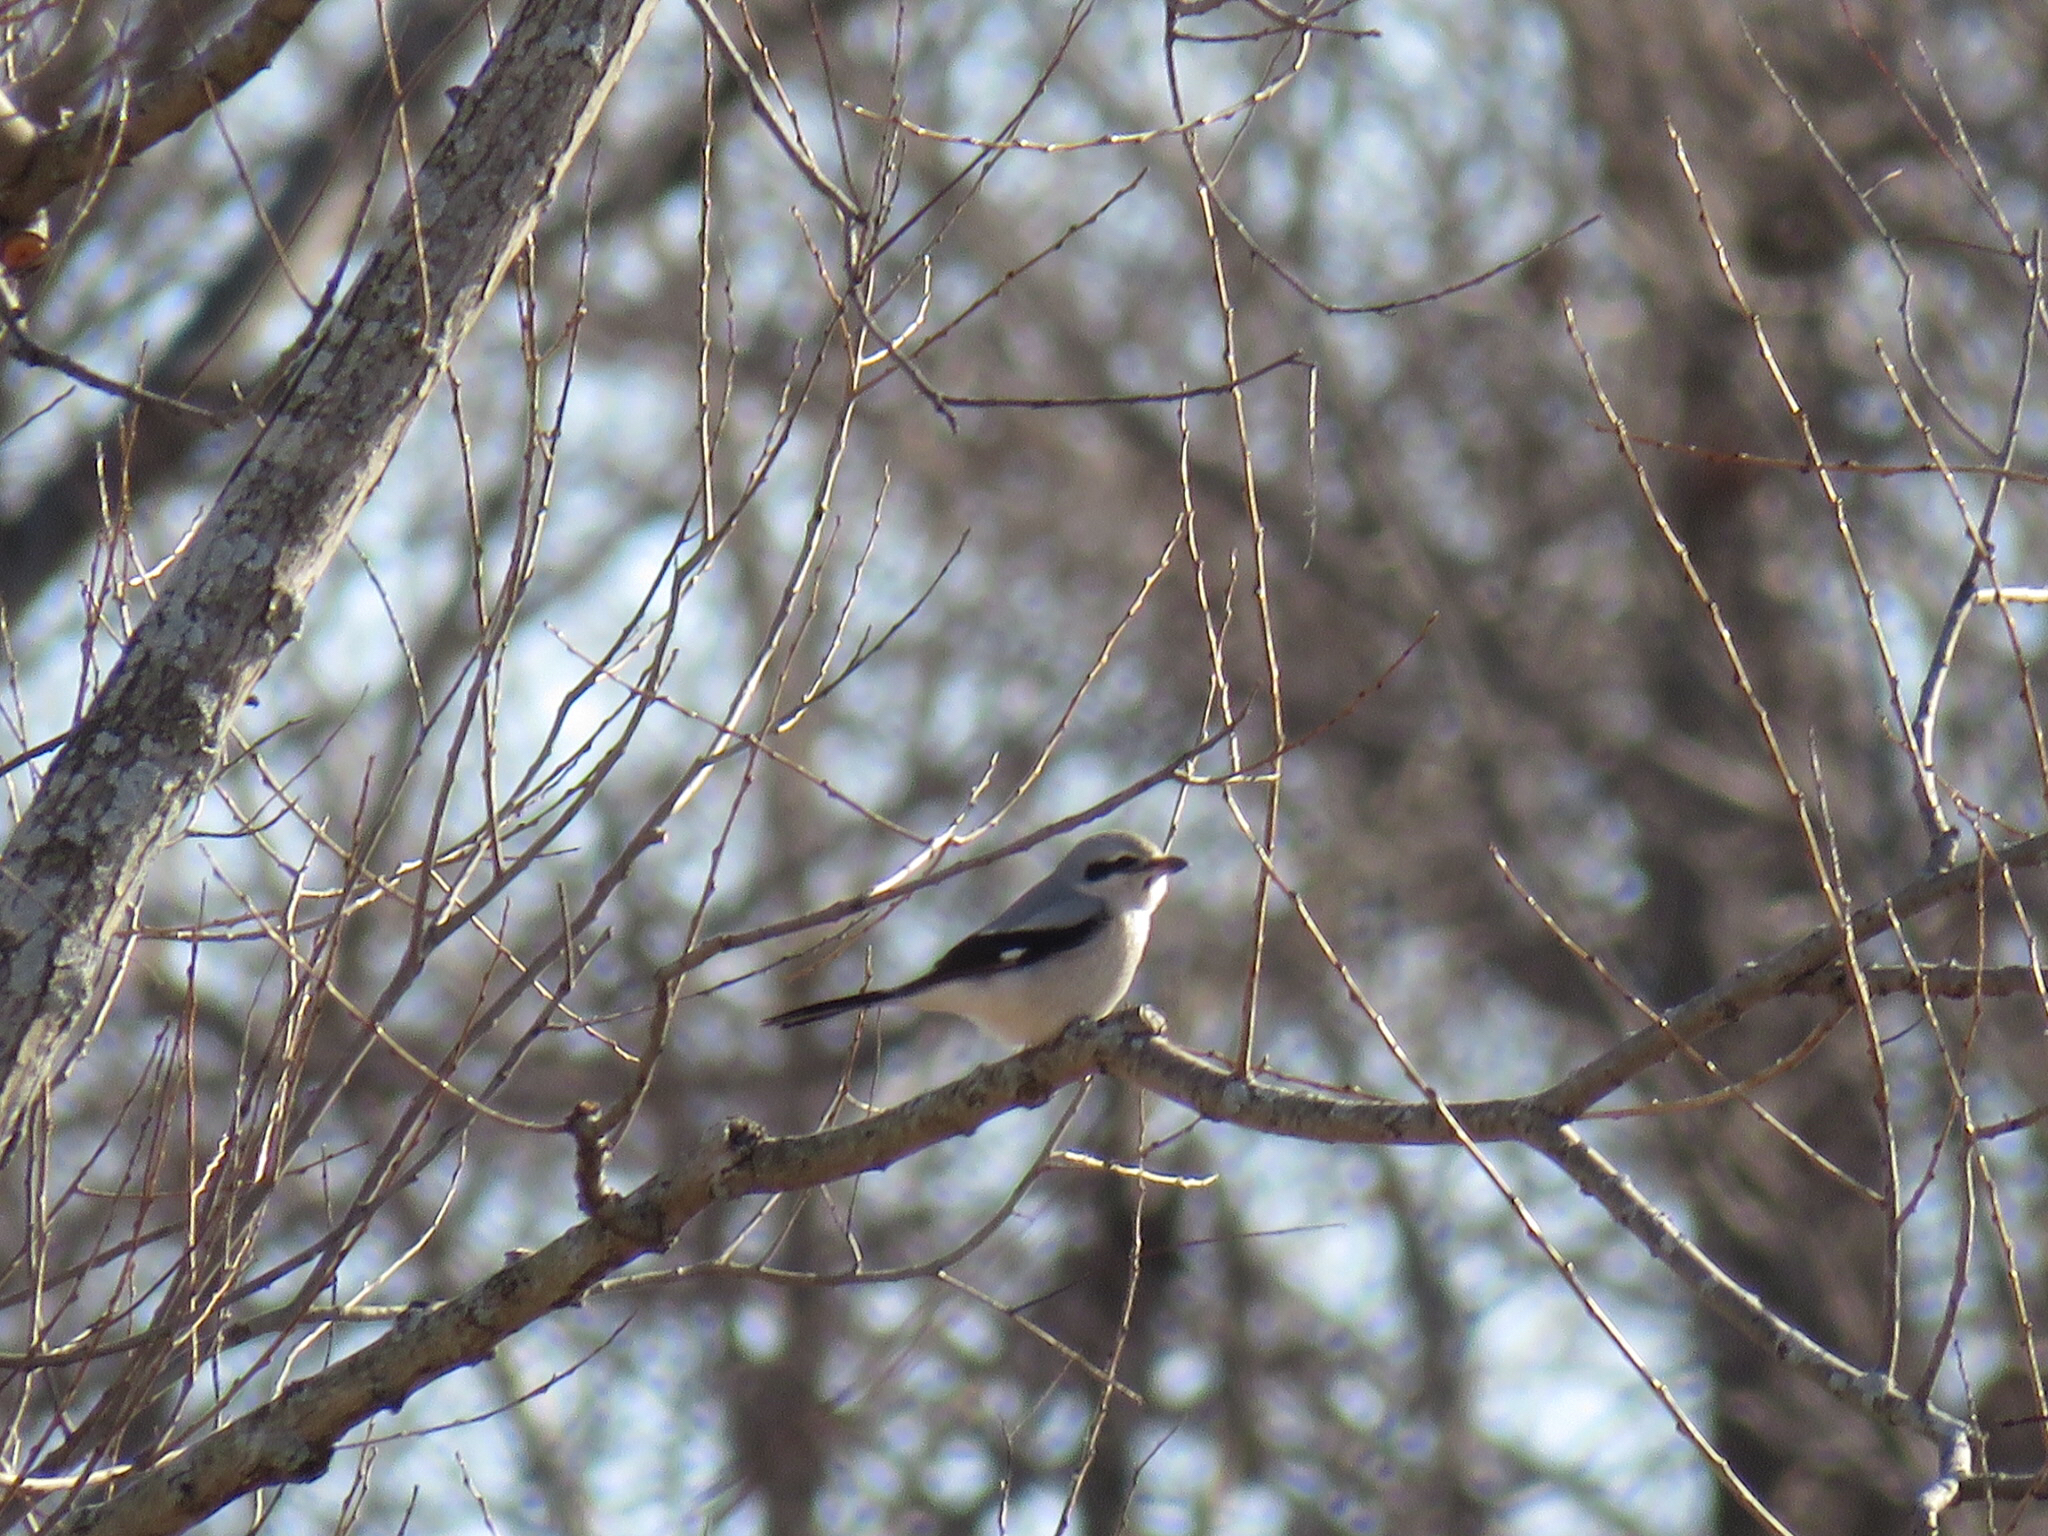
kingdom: Animalia
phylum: Chordata
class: Aves
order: Passeriformes
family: Laniidae
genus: Lanius
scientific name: Lanius borealis
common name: Northern shrike
